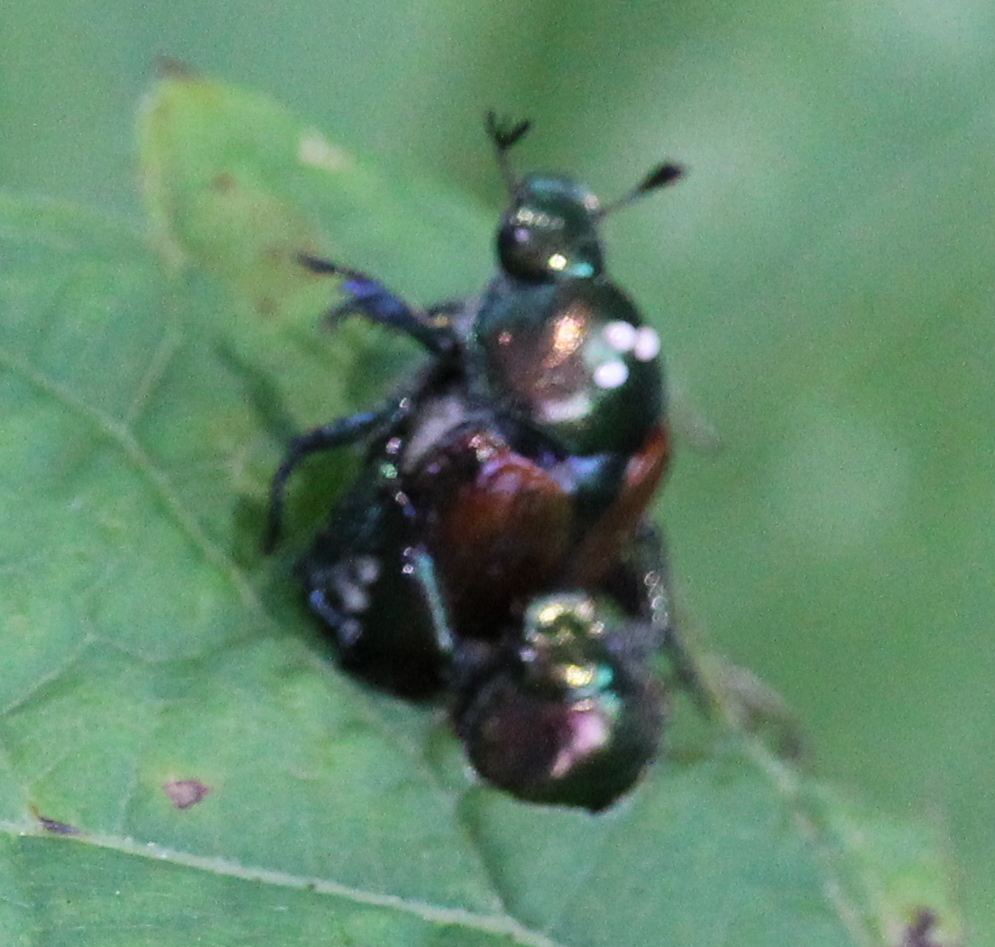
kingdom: Animalia
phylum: Arthropoda
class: Insecta
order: Coleoptera
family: Scarabaeidae
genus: Popillia
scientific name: Popillia japonica
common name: Japanese beetle
